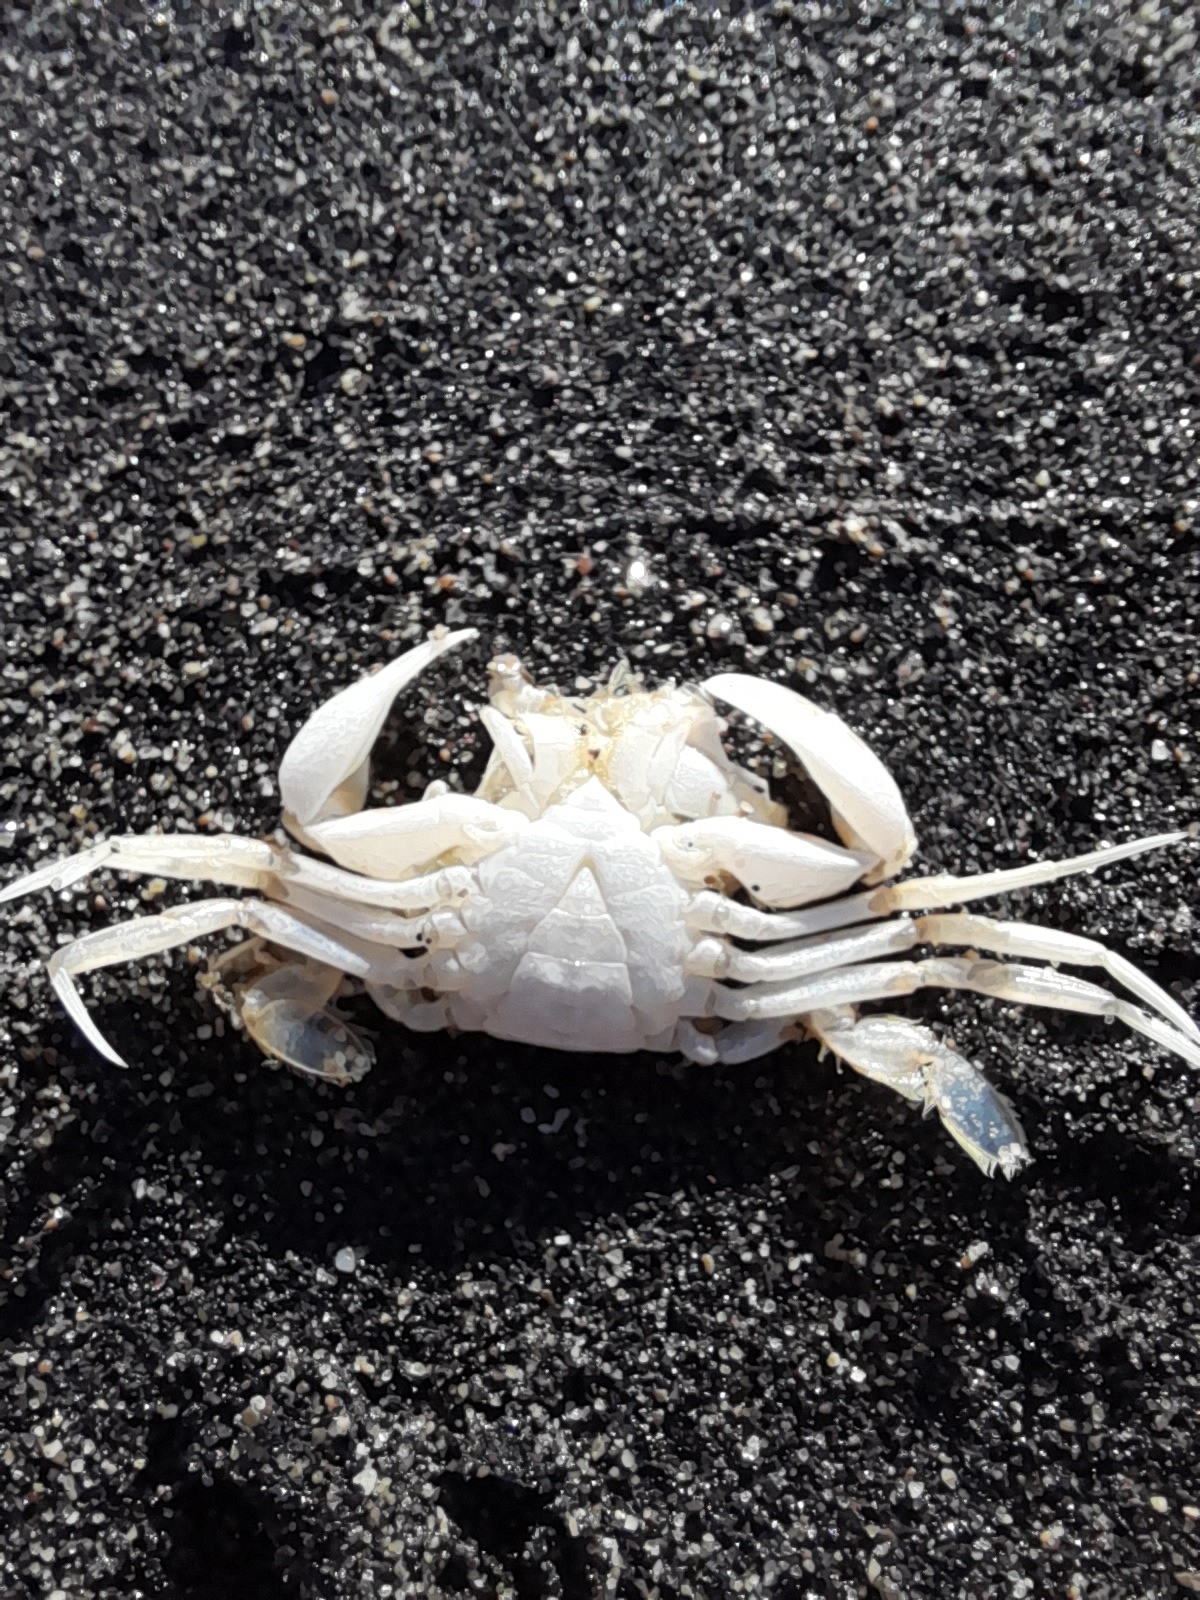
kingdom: Animalia
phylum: Arthropoda
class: Malacostraca
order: Decapoda
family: Polybiidae
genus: Liocarcinus
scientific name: Liocarcinus vernalis
